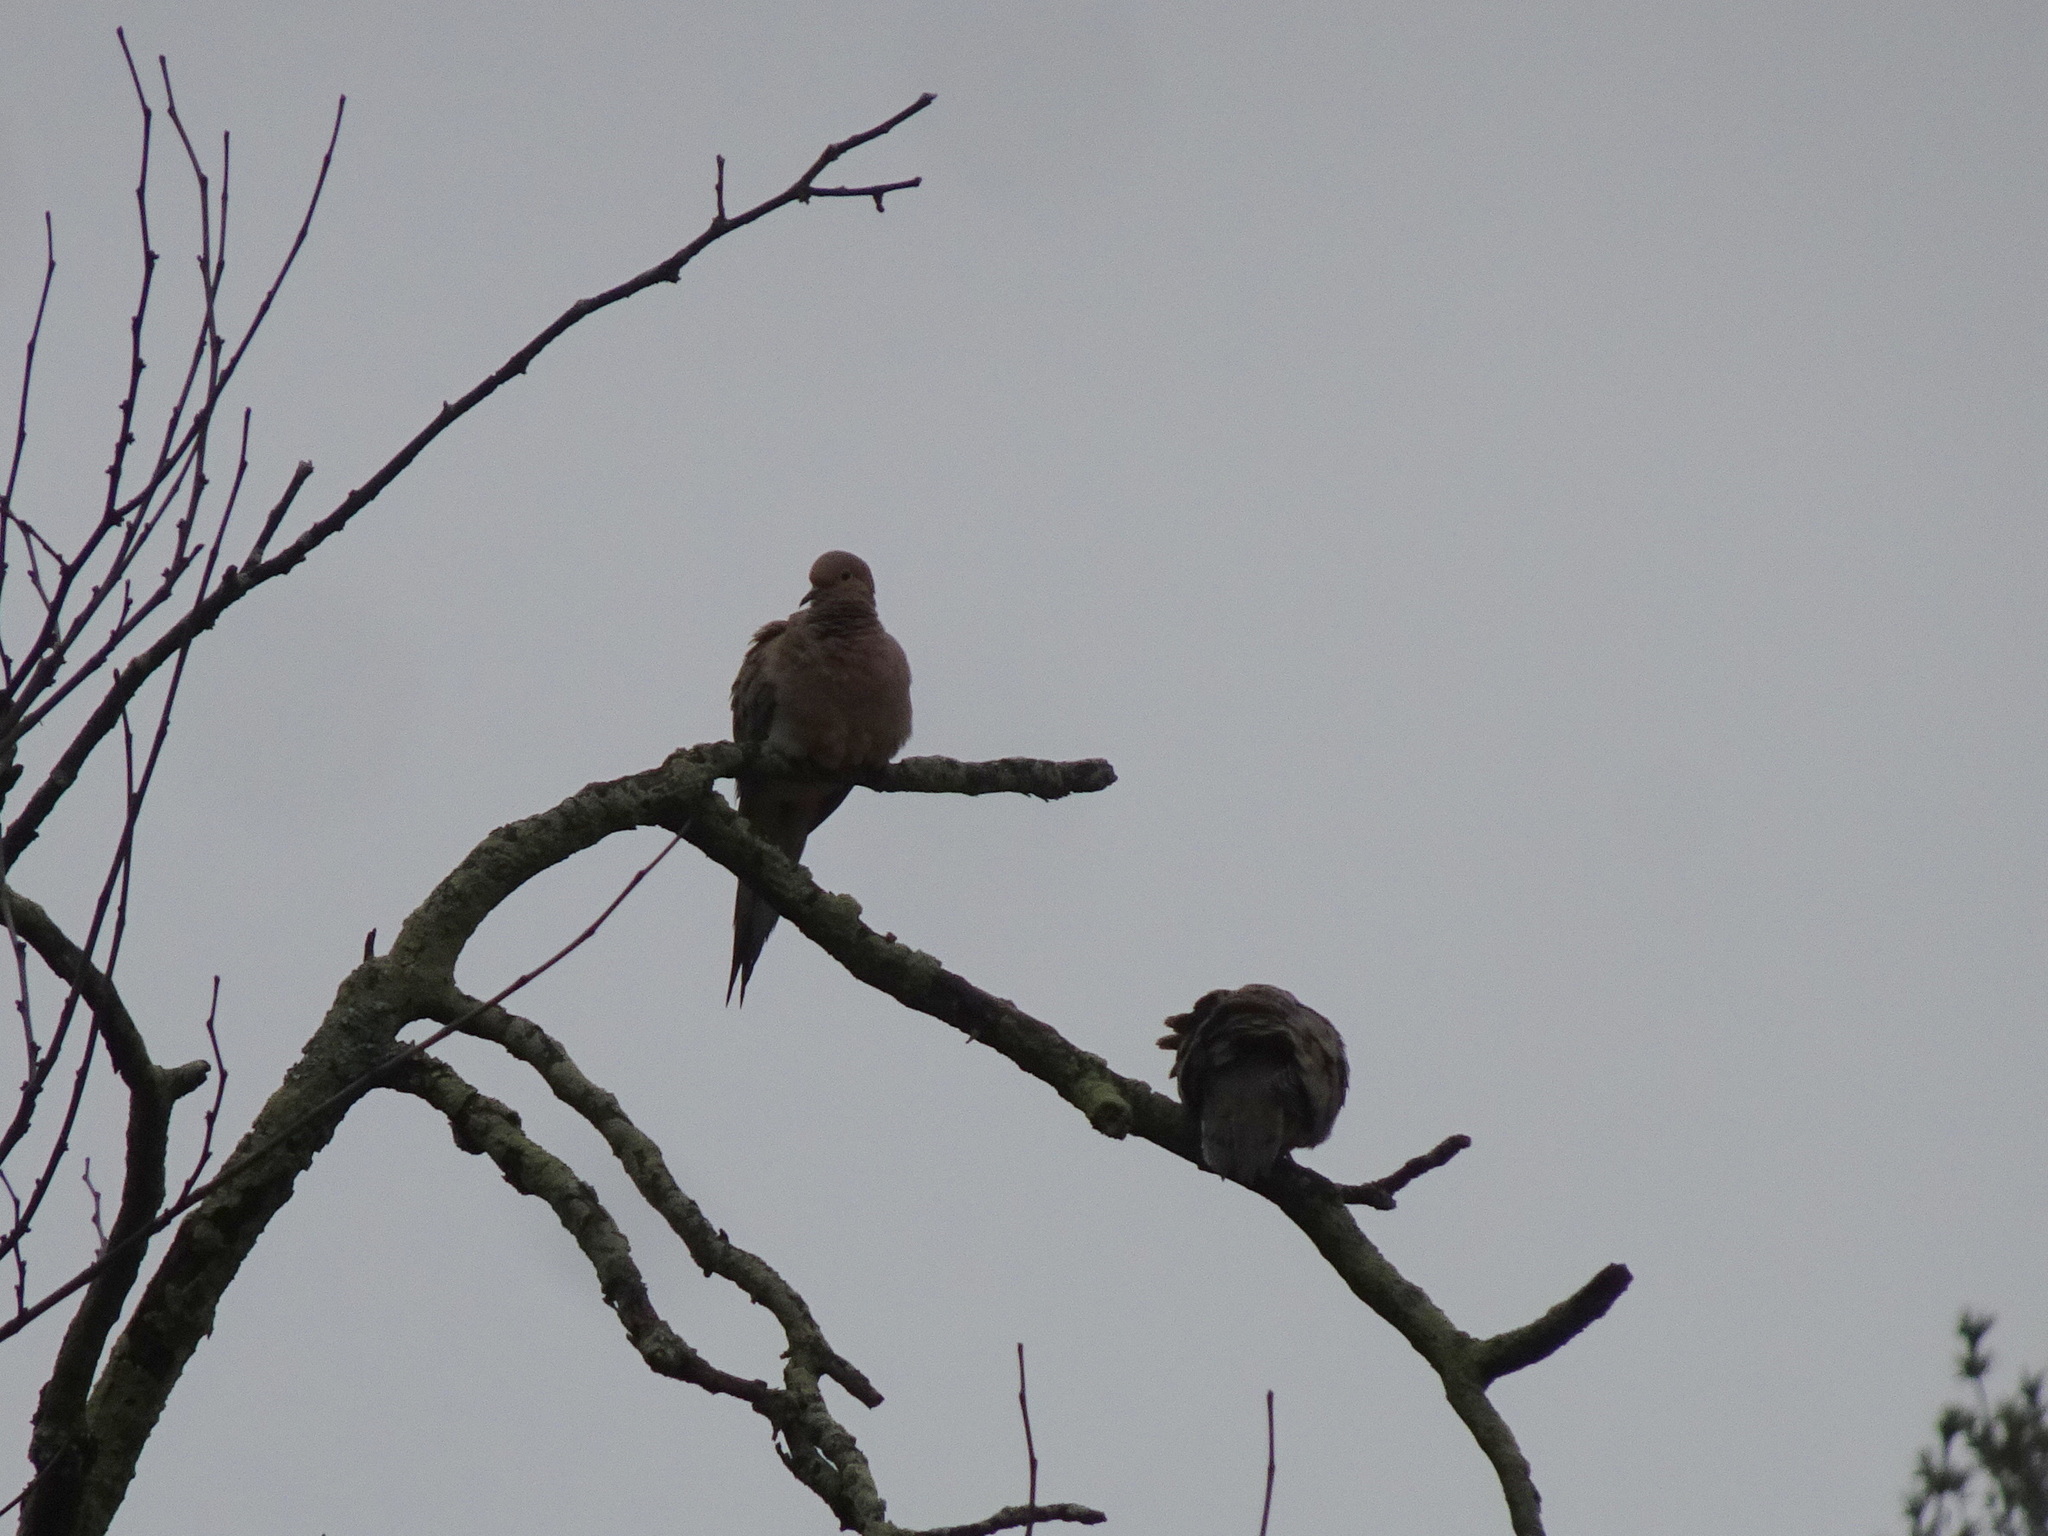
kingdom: Animalia
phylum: Chordata
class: Aves
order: Columbiformes
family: Columbidae
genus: Zenaida
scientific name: Zenaida macroura
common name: Mourning dove
